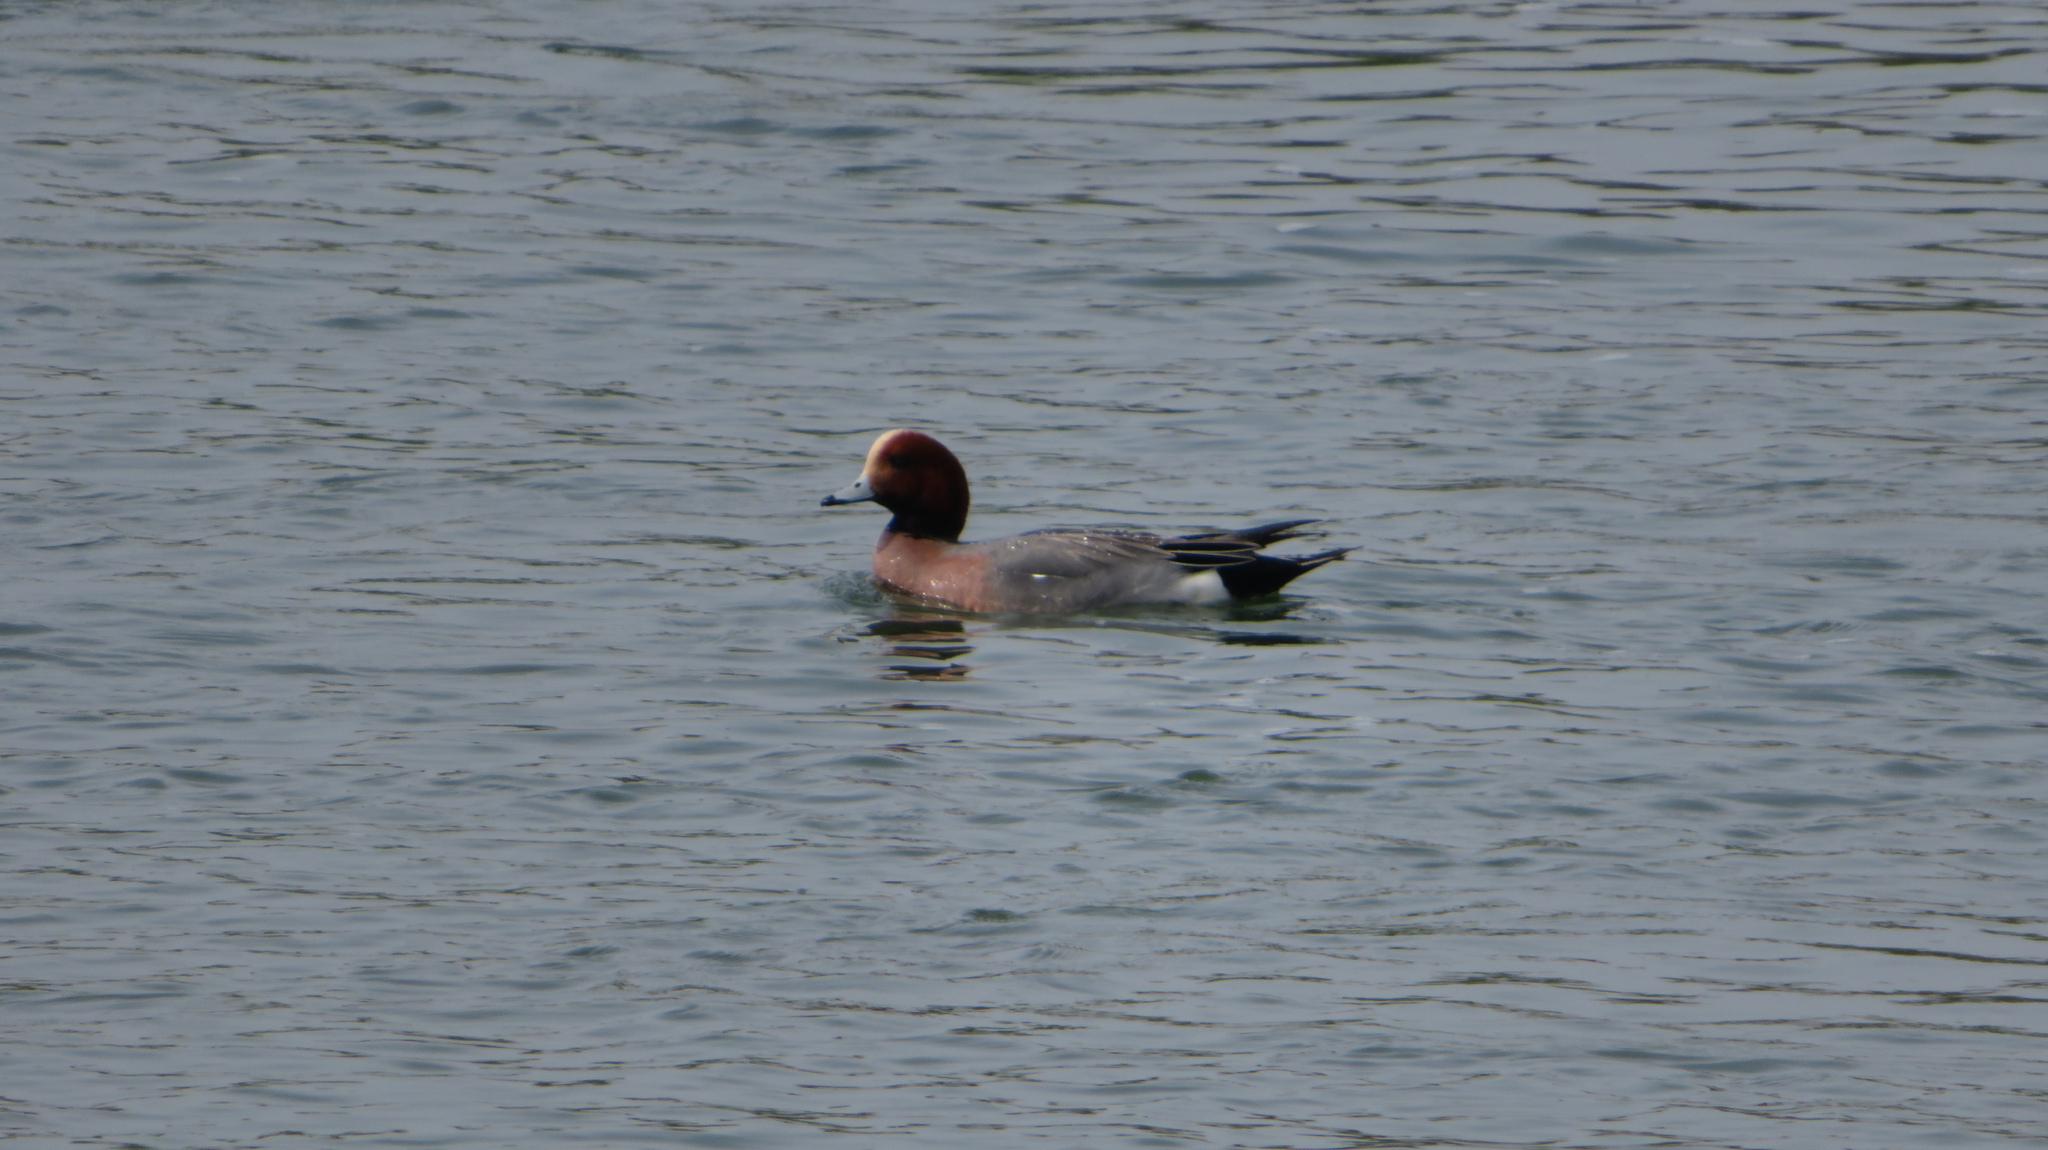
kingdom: Animalia
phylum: Chordata
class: Aves
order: Anseriformes
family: Anatidae
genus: Mareca
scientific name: Mareca penelope
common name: Eurasian wigeon
